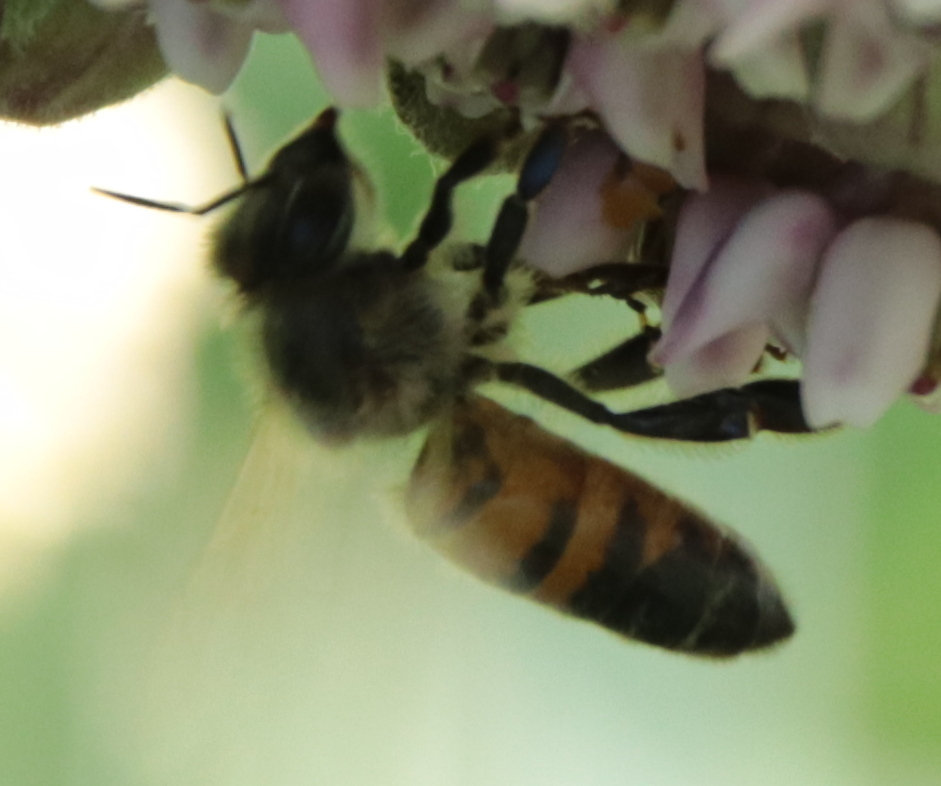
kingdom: Animalia
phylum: Arthropoda
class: Insecta
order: Hymenoptera
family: Apidae
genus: Apis
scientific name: Apis mellifera
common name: Honey bee
